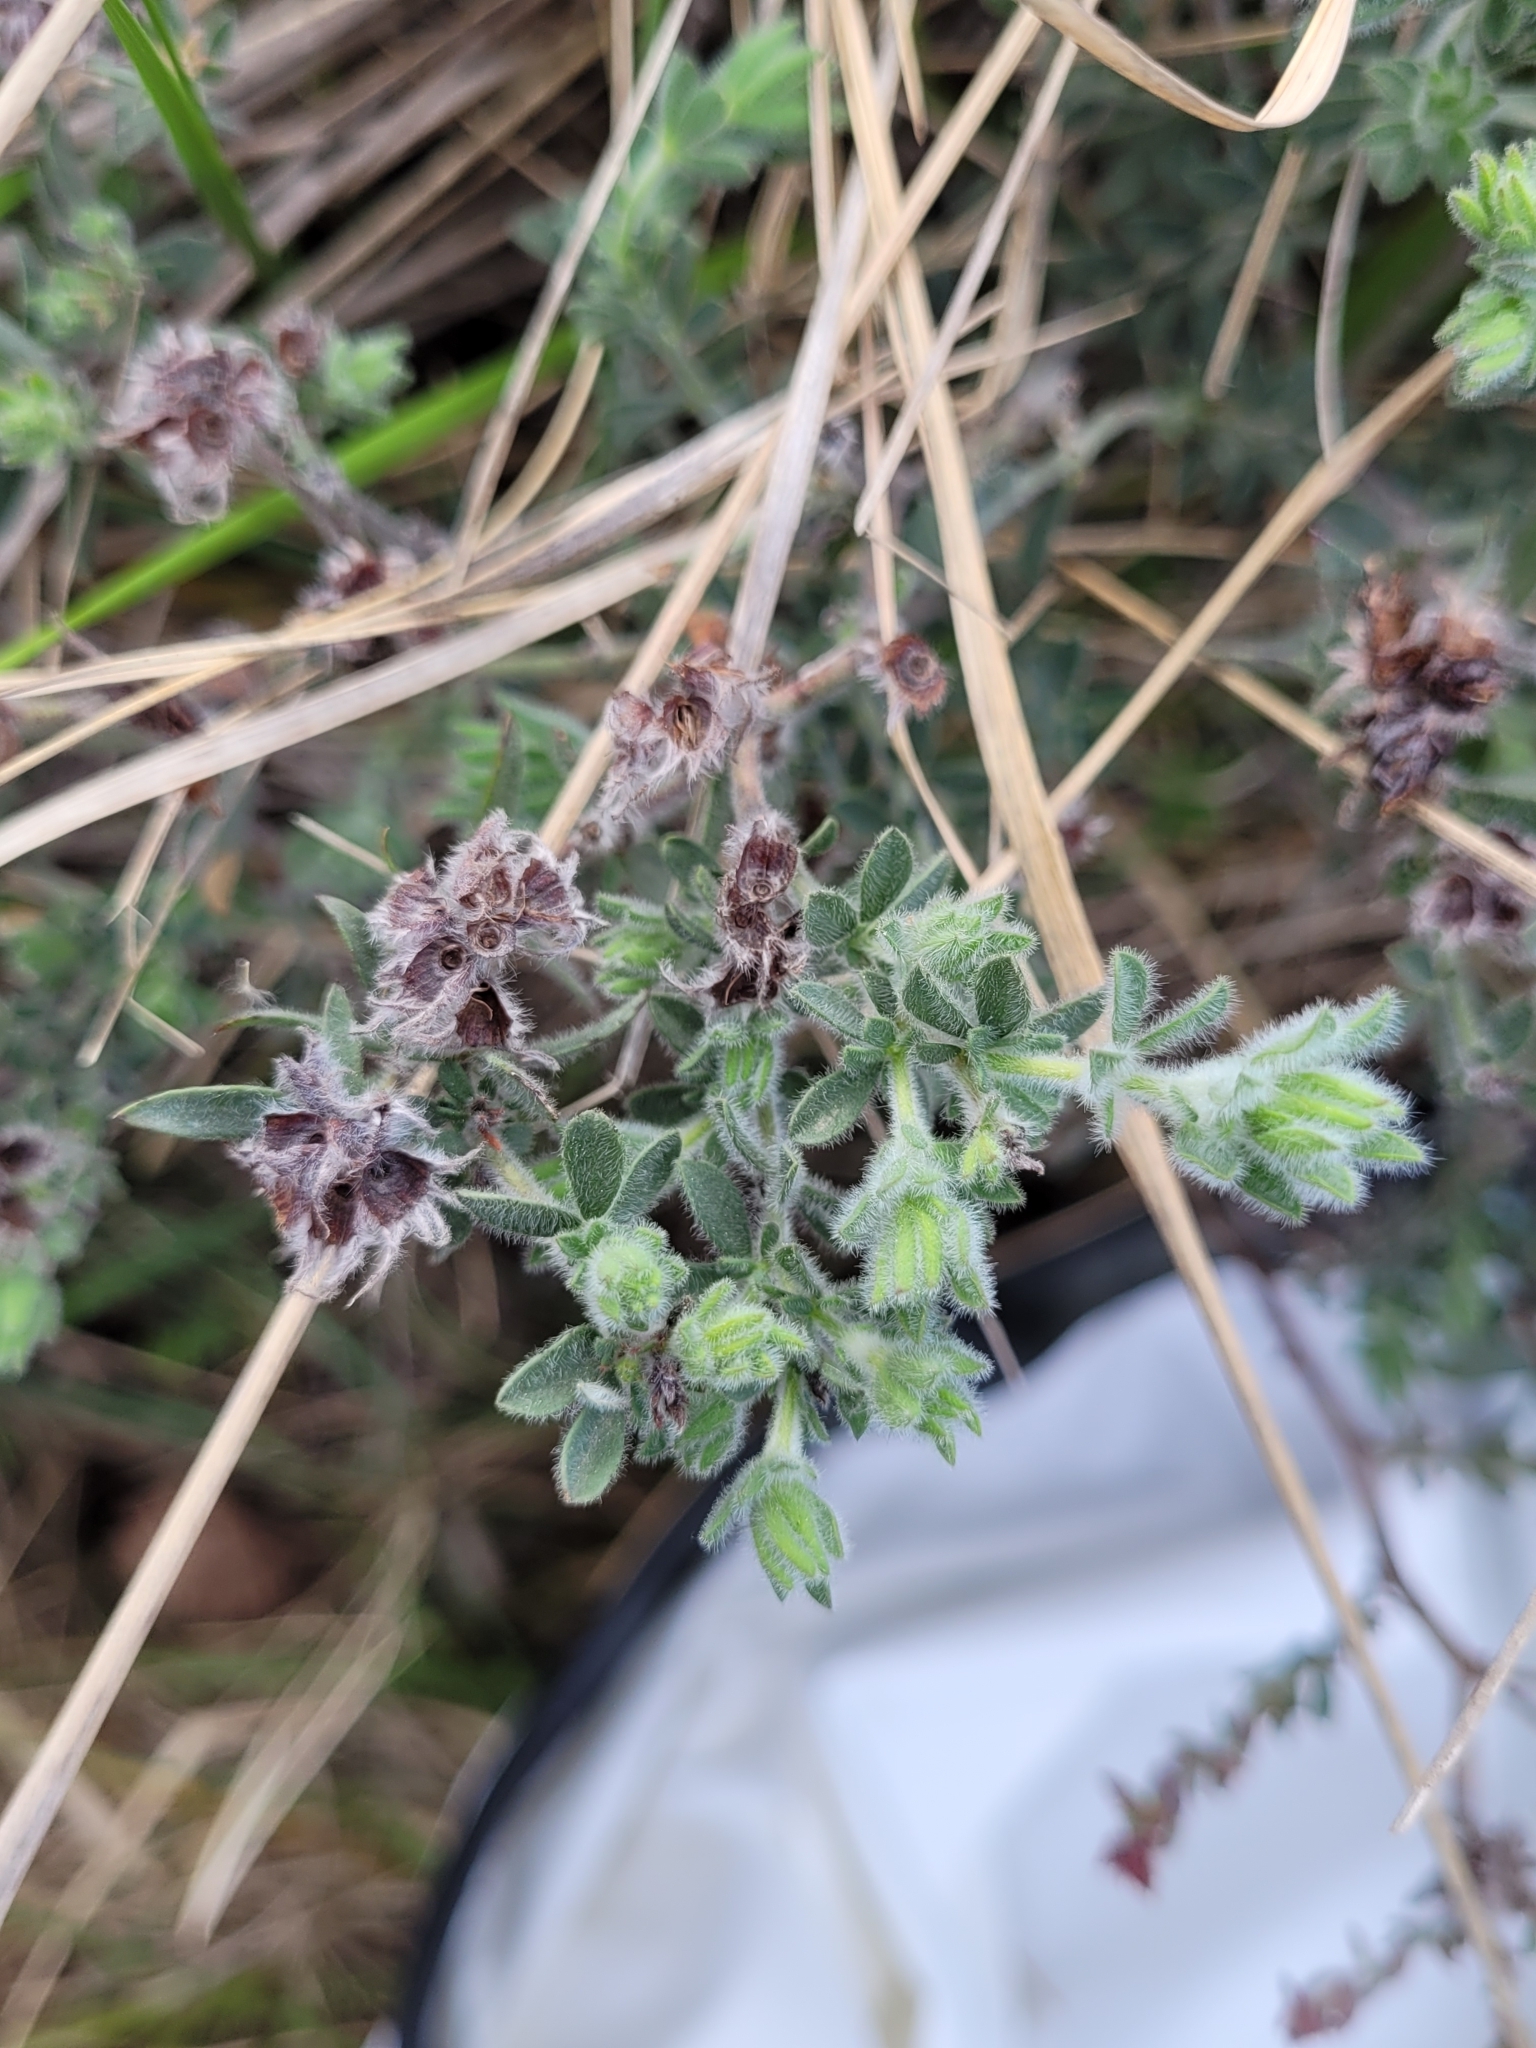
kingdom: Plantae
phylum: Tracheophyta
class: Magnoliopsida
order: Fabales
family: Fabaceae
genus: Lotus
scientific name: Lotus hirsutus
